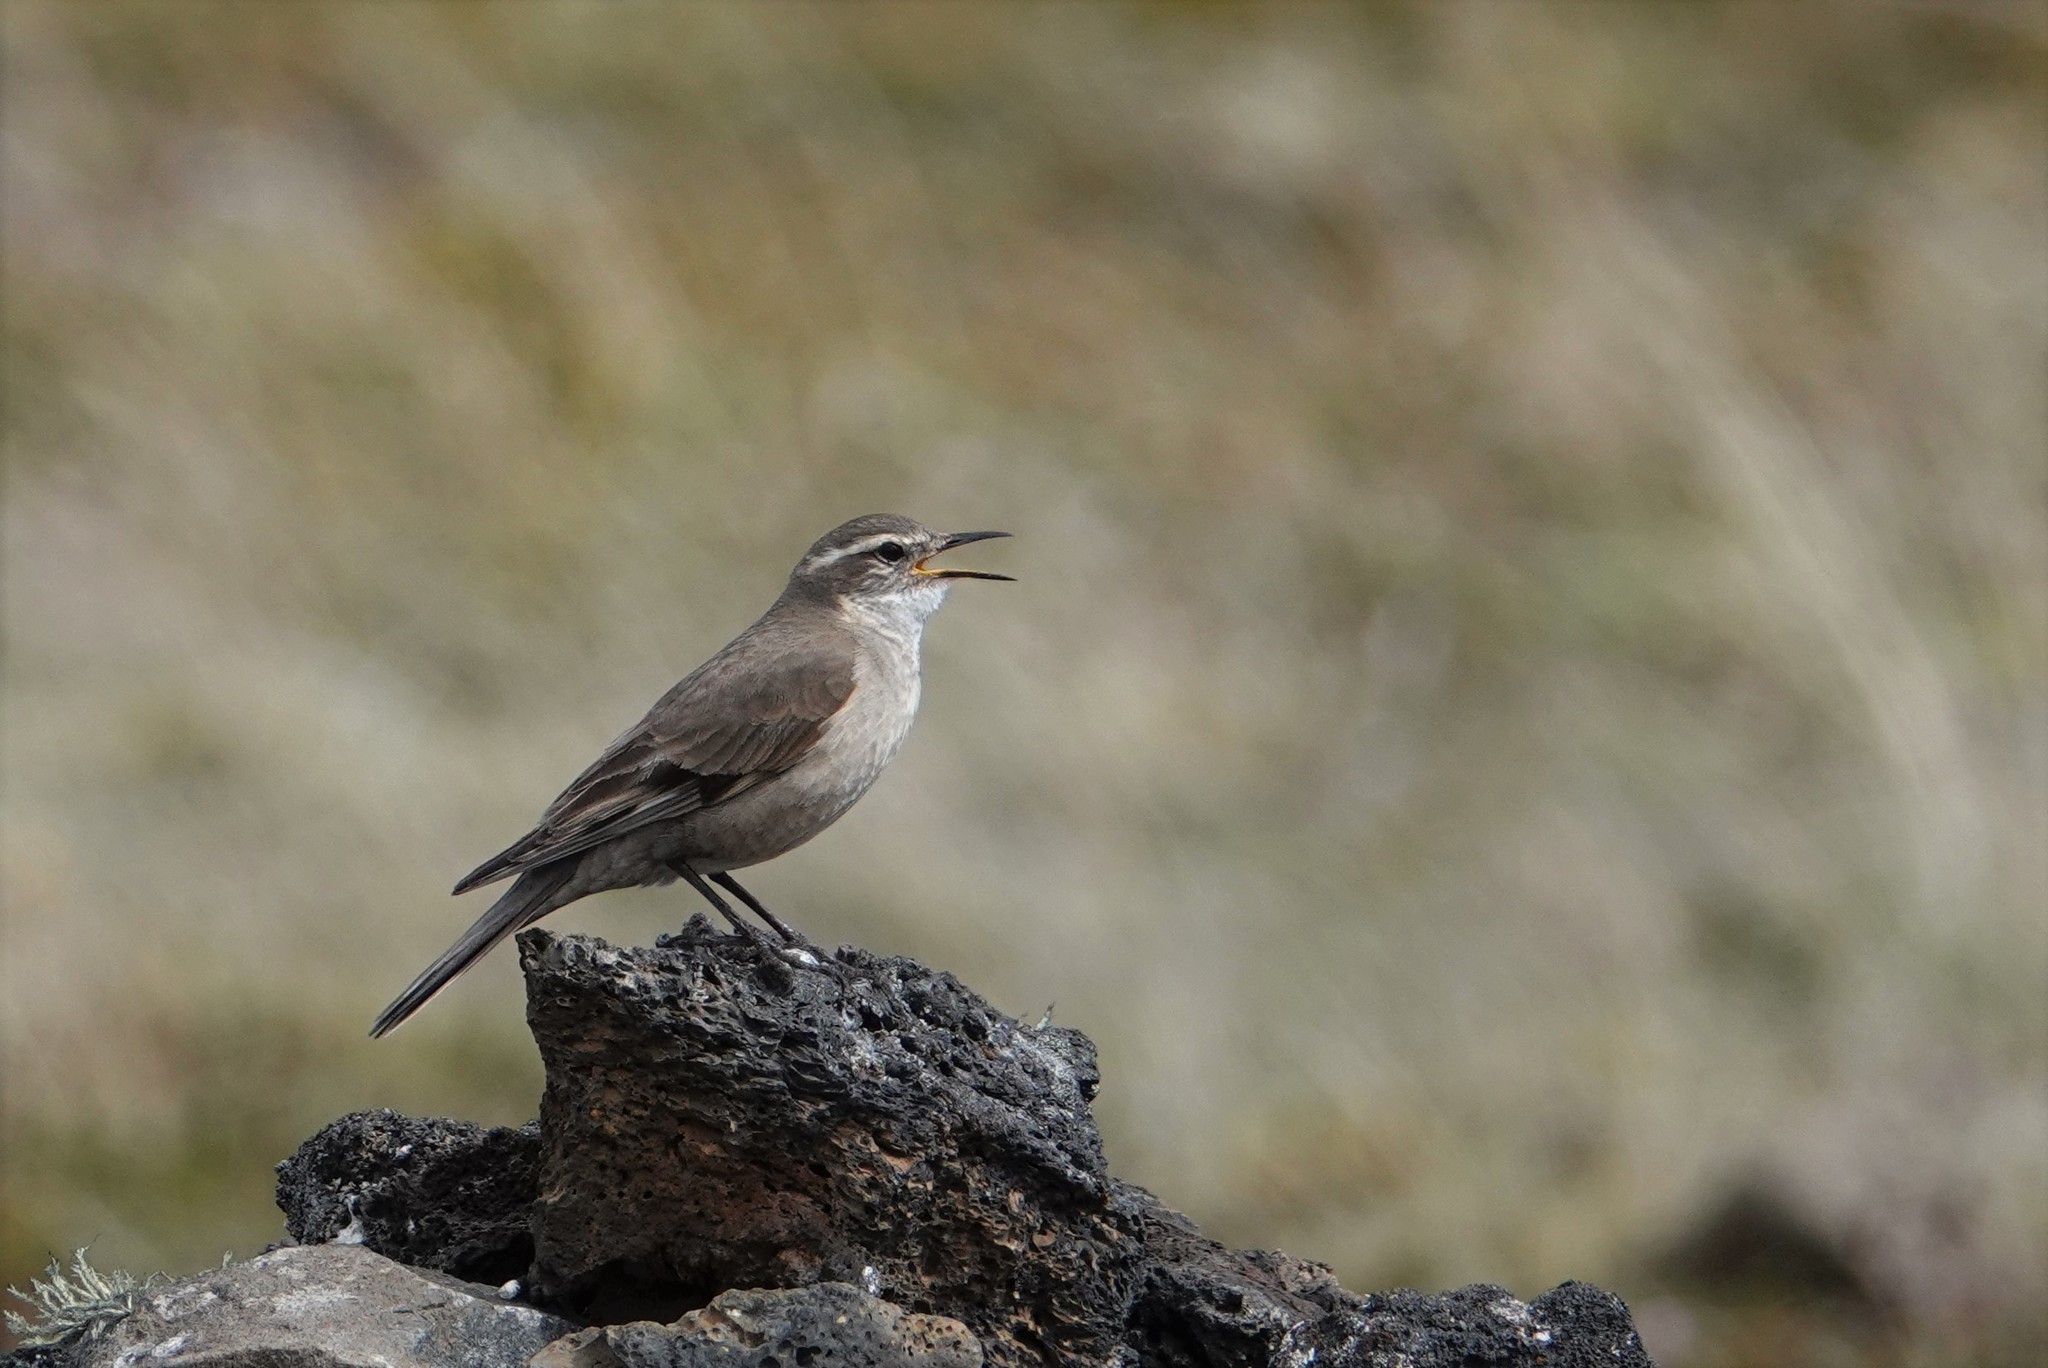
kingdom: Animalia
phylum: Chordata
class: Aves
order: Passeriformes
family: Furnariidae
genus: Cinclodes
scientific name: Cinclodes fuscus
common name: Buff-winged cinclodes
